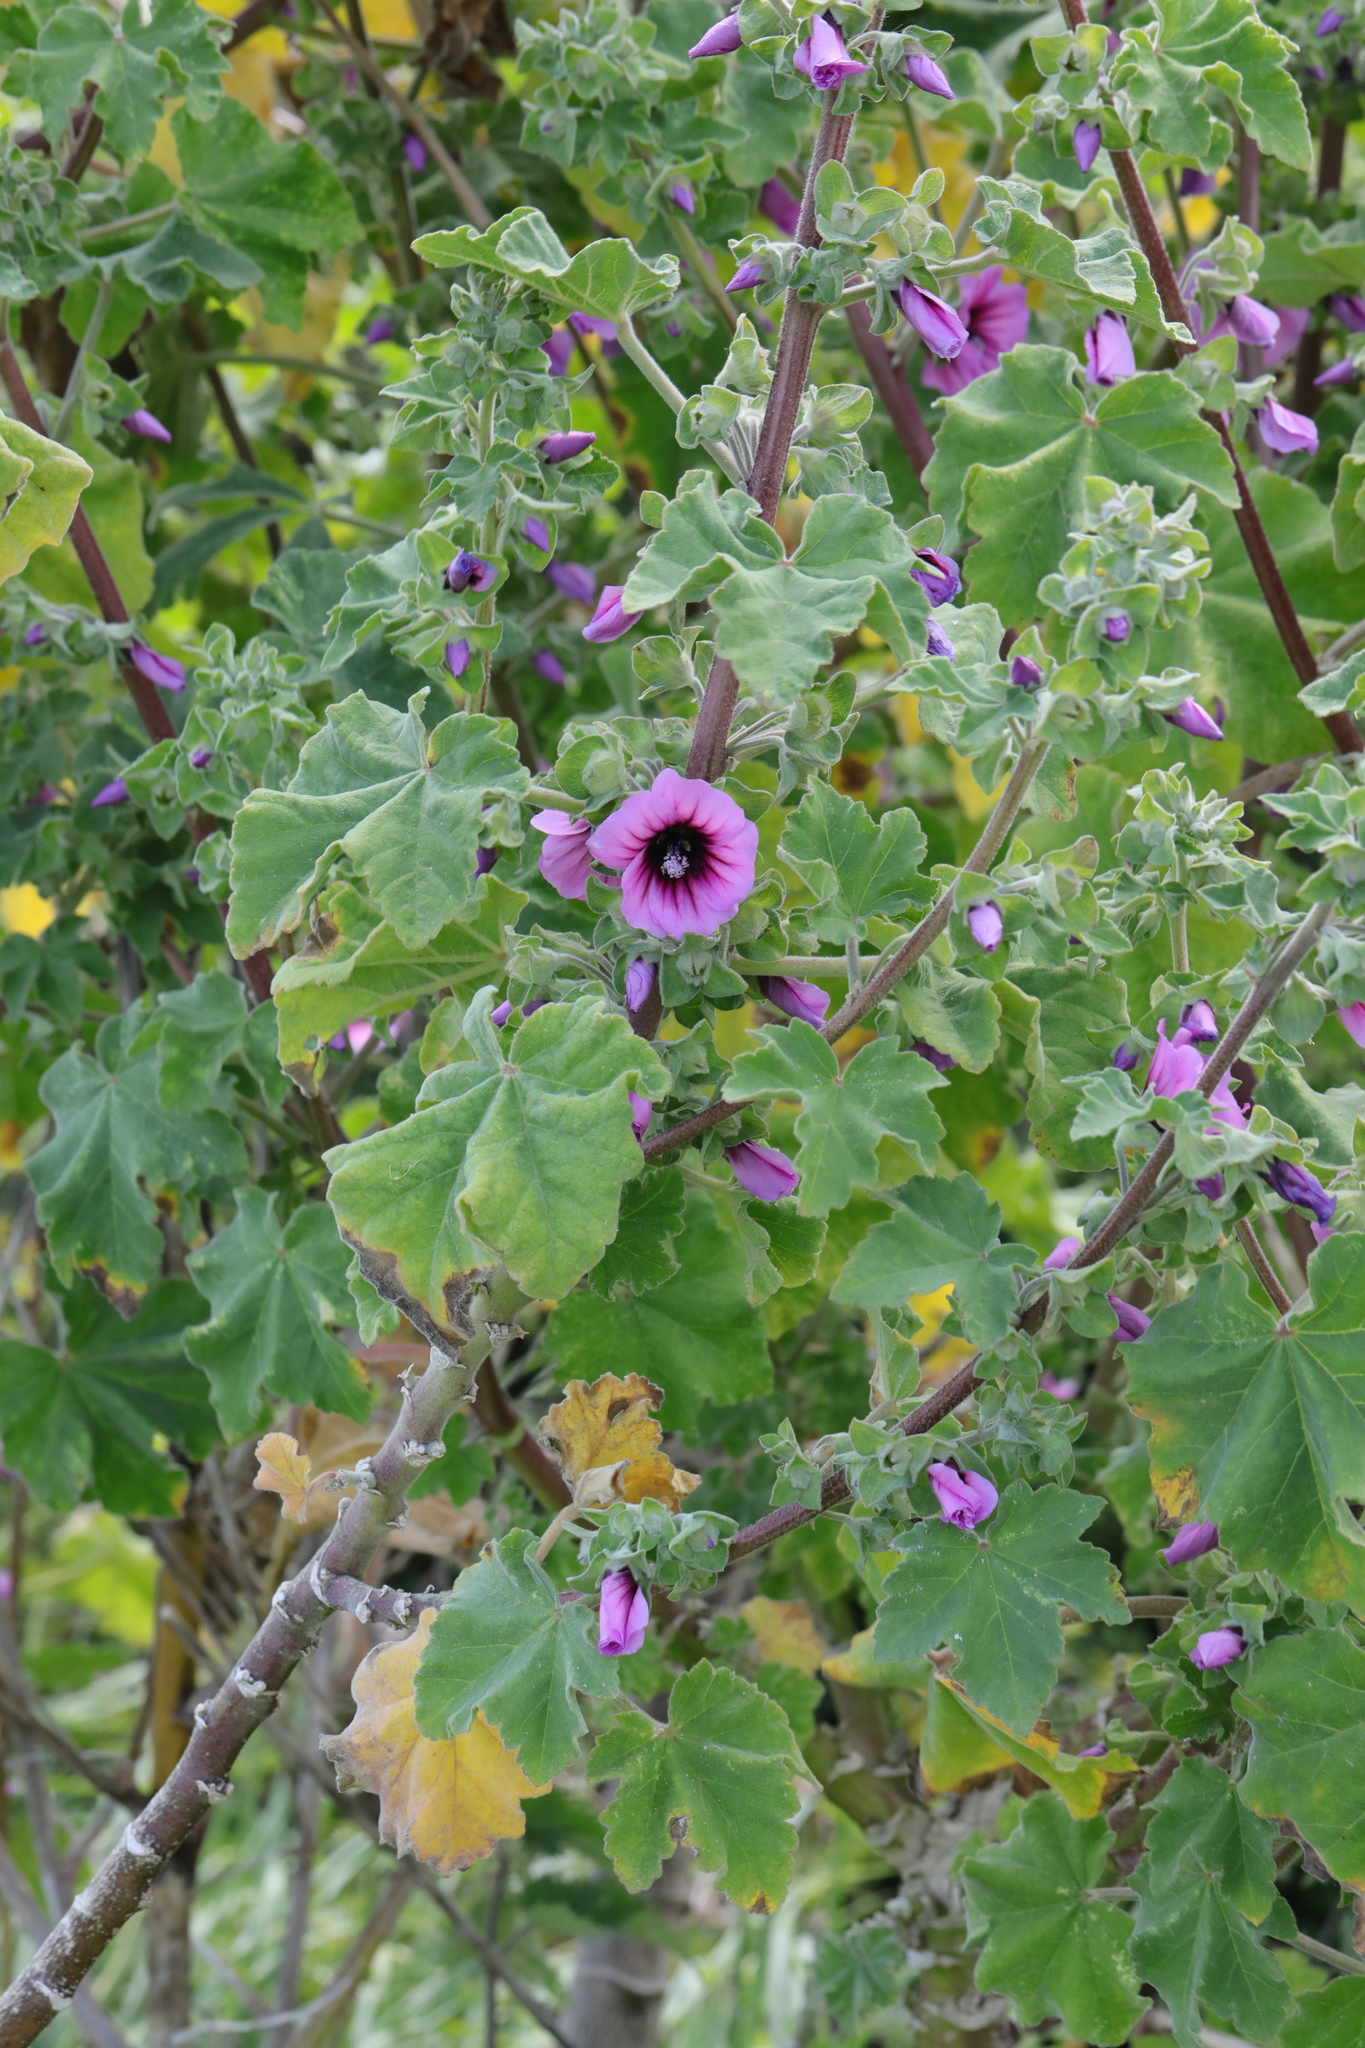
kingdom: Plantae
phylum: Tracheophyta
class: Magnoliopsida
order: Malvales
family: Malvaceae
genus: Malva
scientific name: Malva arborea
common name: Tree mallow
